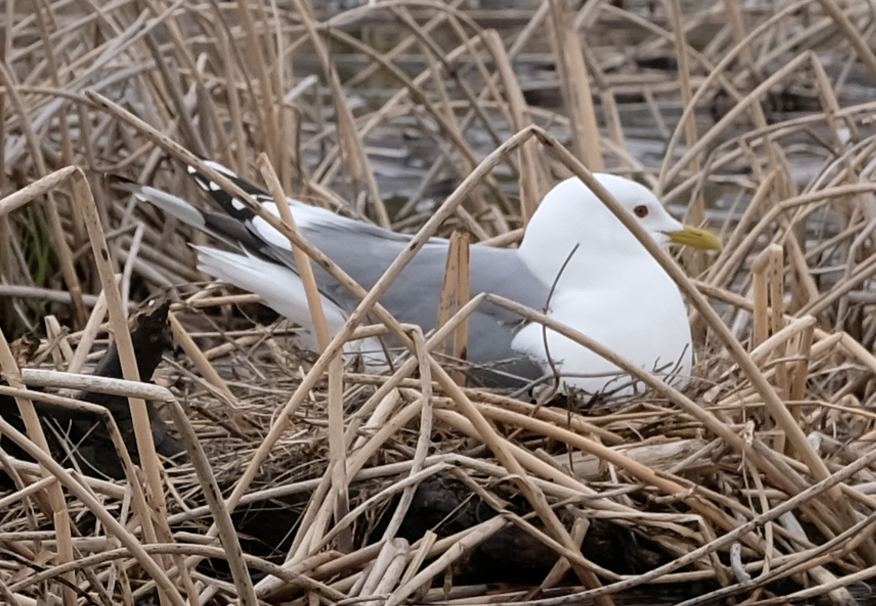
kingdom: Animalia
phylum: Chordata
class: Aves
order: Charadriiformes
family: Laridae
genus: Larus
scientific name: Larus brachyrhynchus
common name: Short-billed gull
